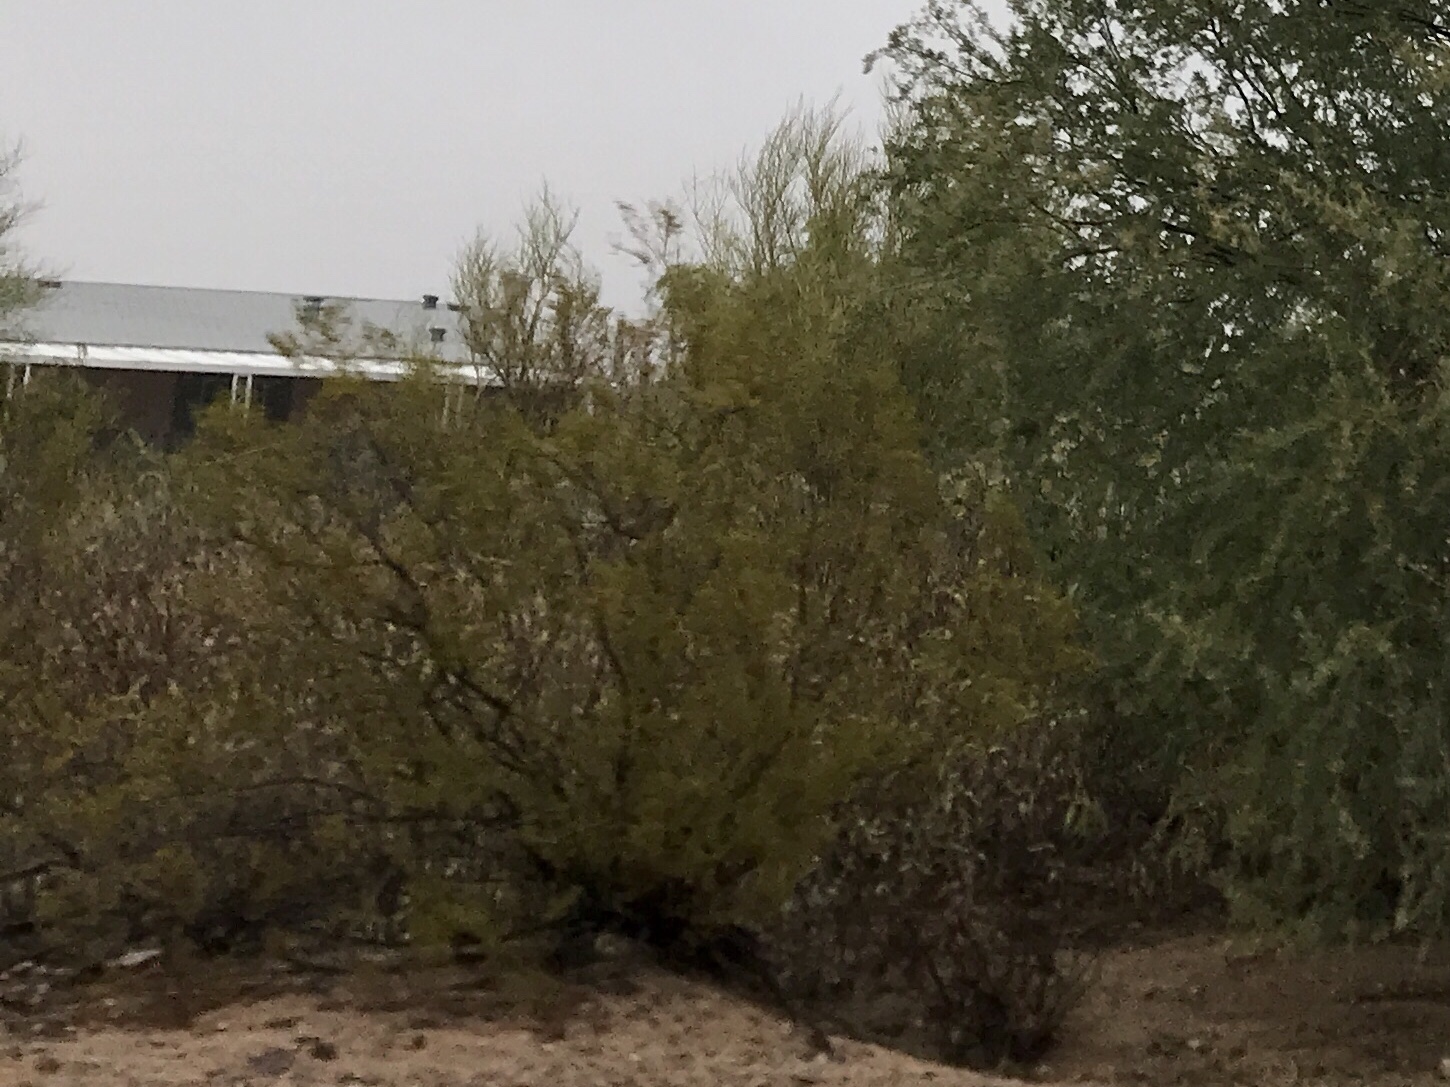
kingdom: Plantae
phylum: Tracheophyta
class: Magnoliopsida
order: Zygophyllales
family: Zygophyllaceae
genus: Larrea
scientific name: Larrea tridentata
